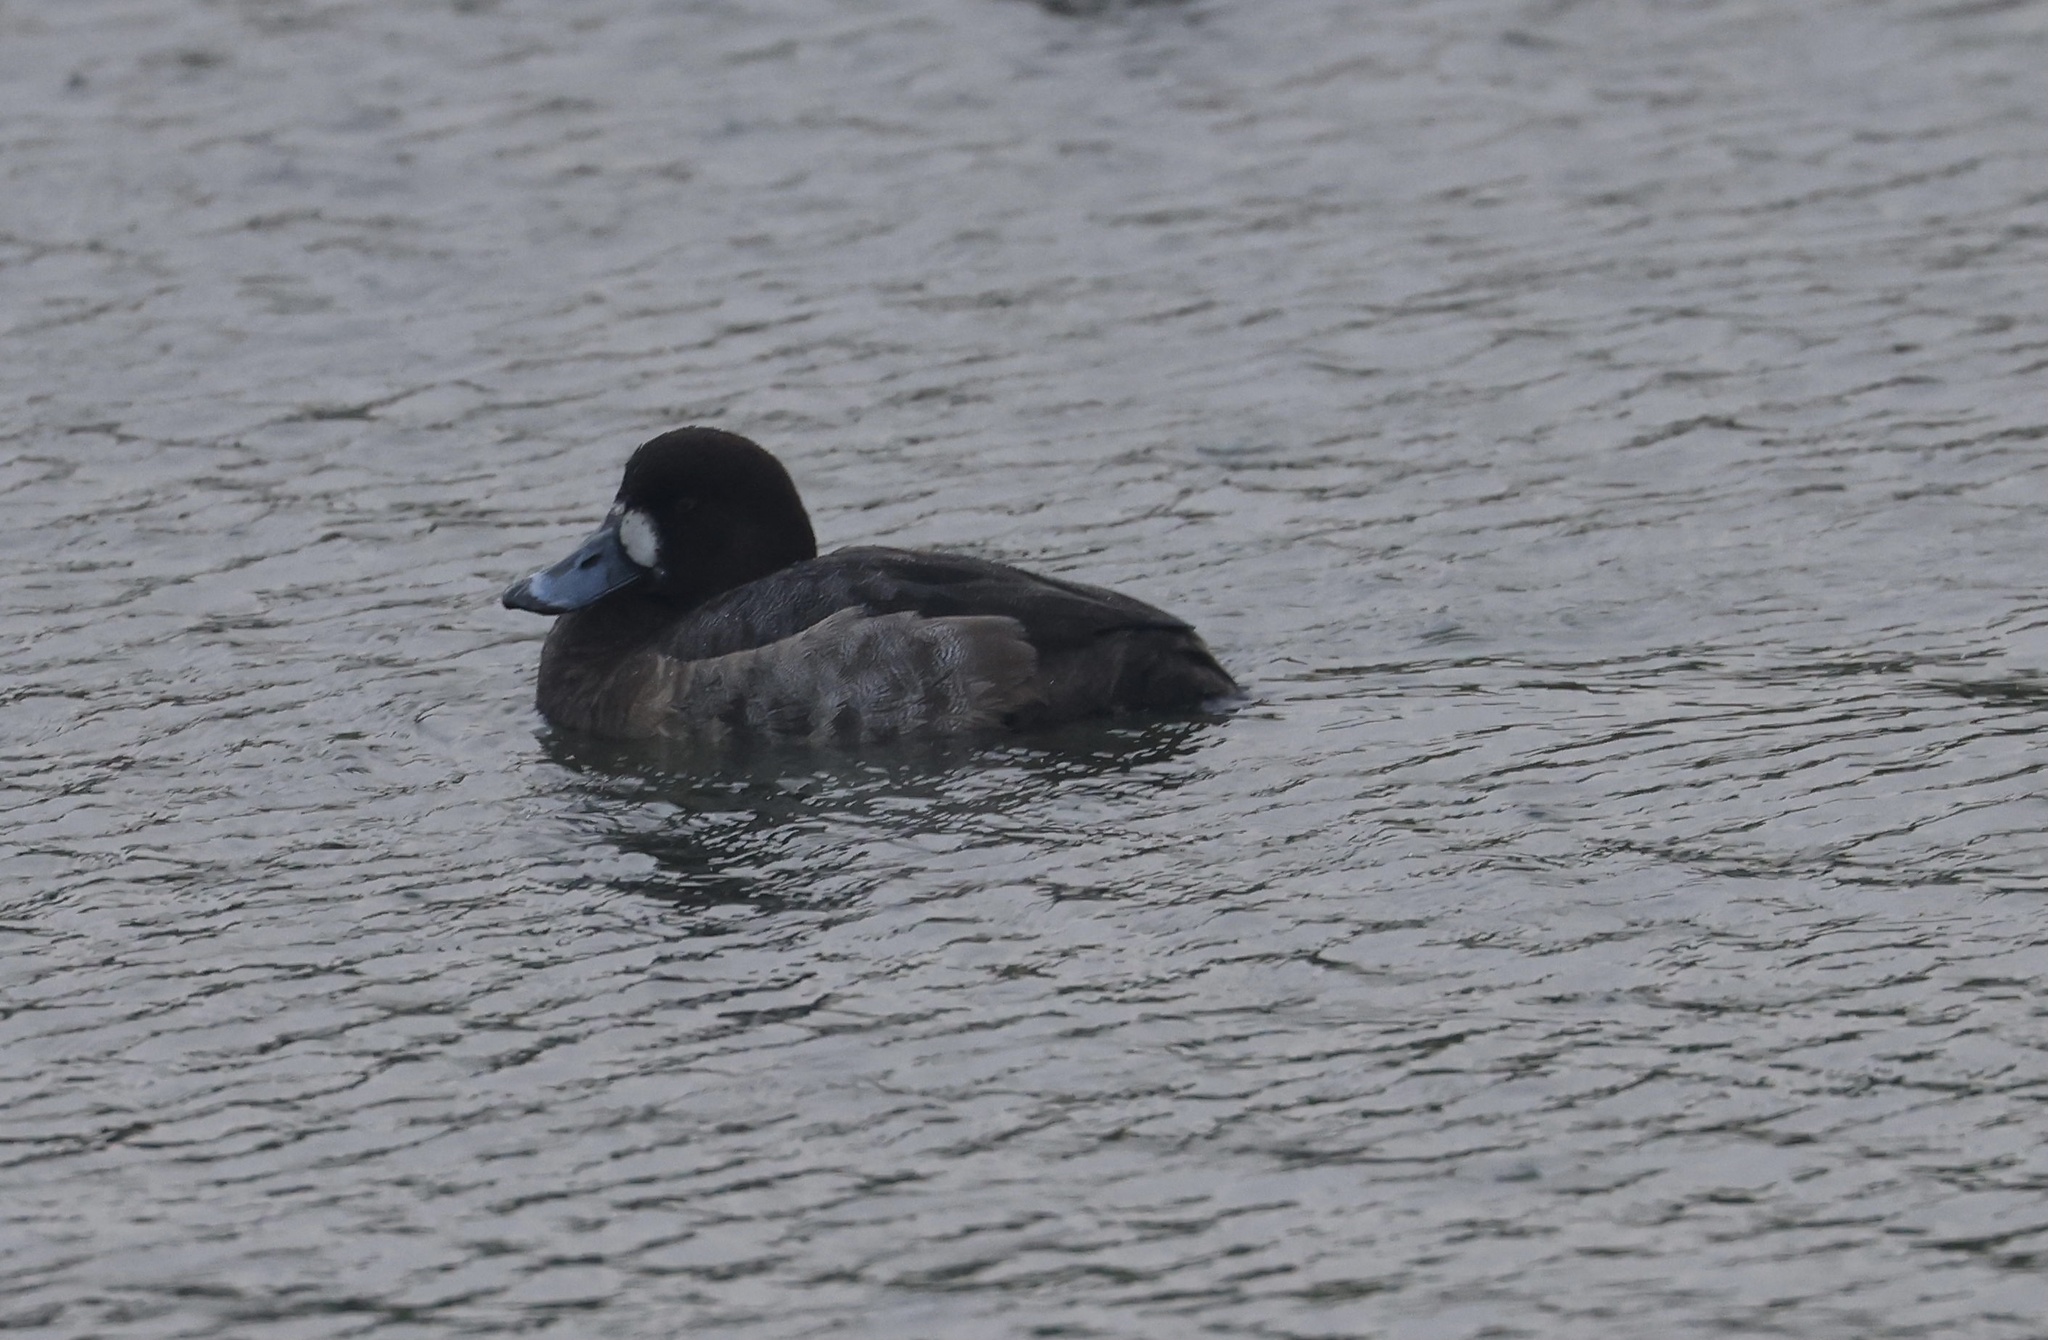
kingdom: Animalia
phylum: Chordata
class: Aves
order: Anseriformes
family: Anatidae
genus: Aythya
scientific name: Aythya marila
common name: Greater scaup
